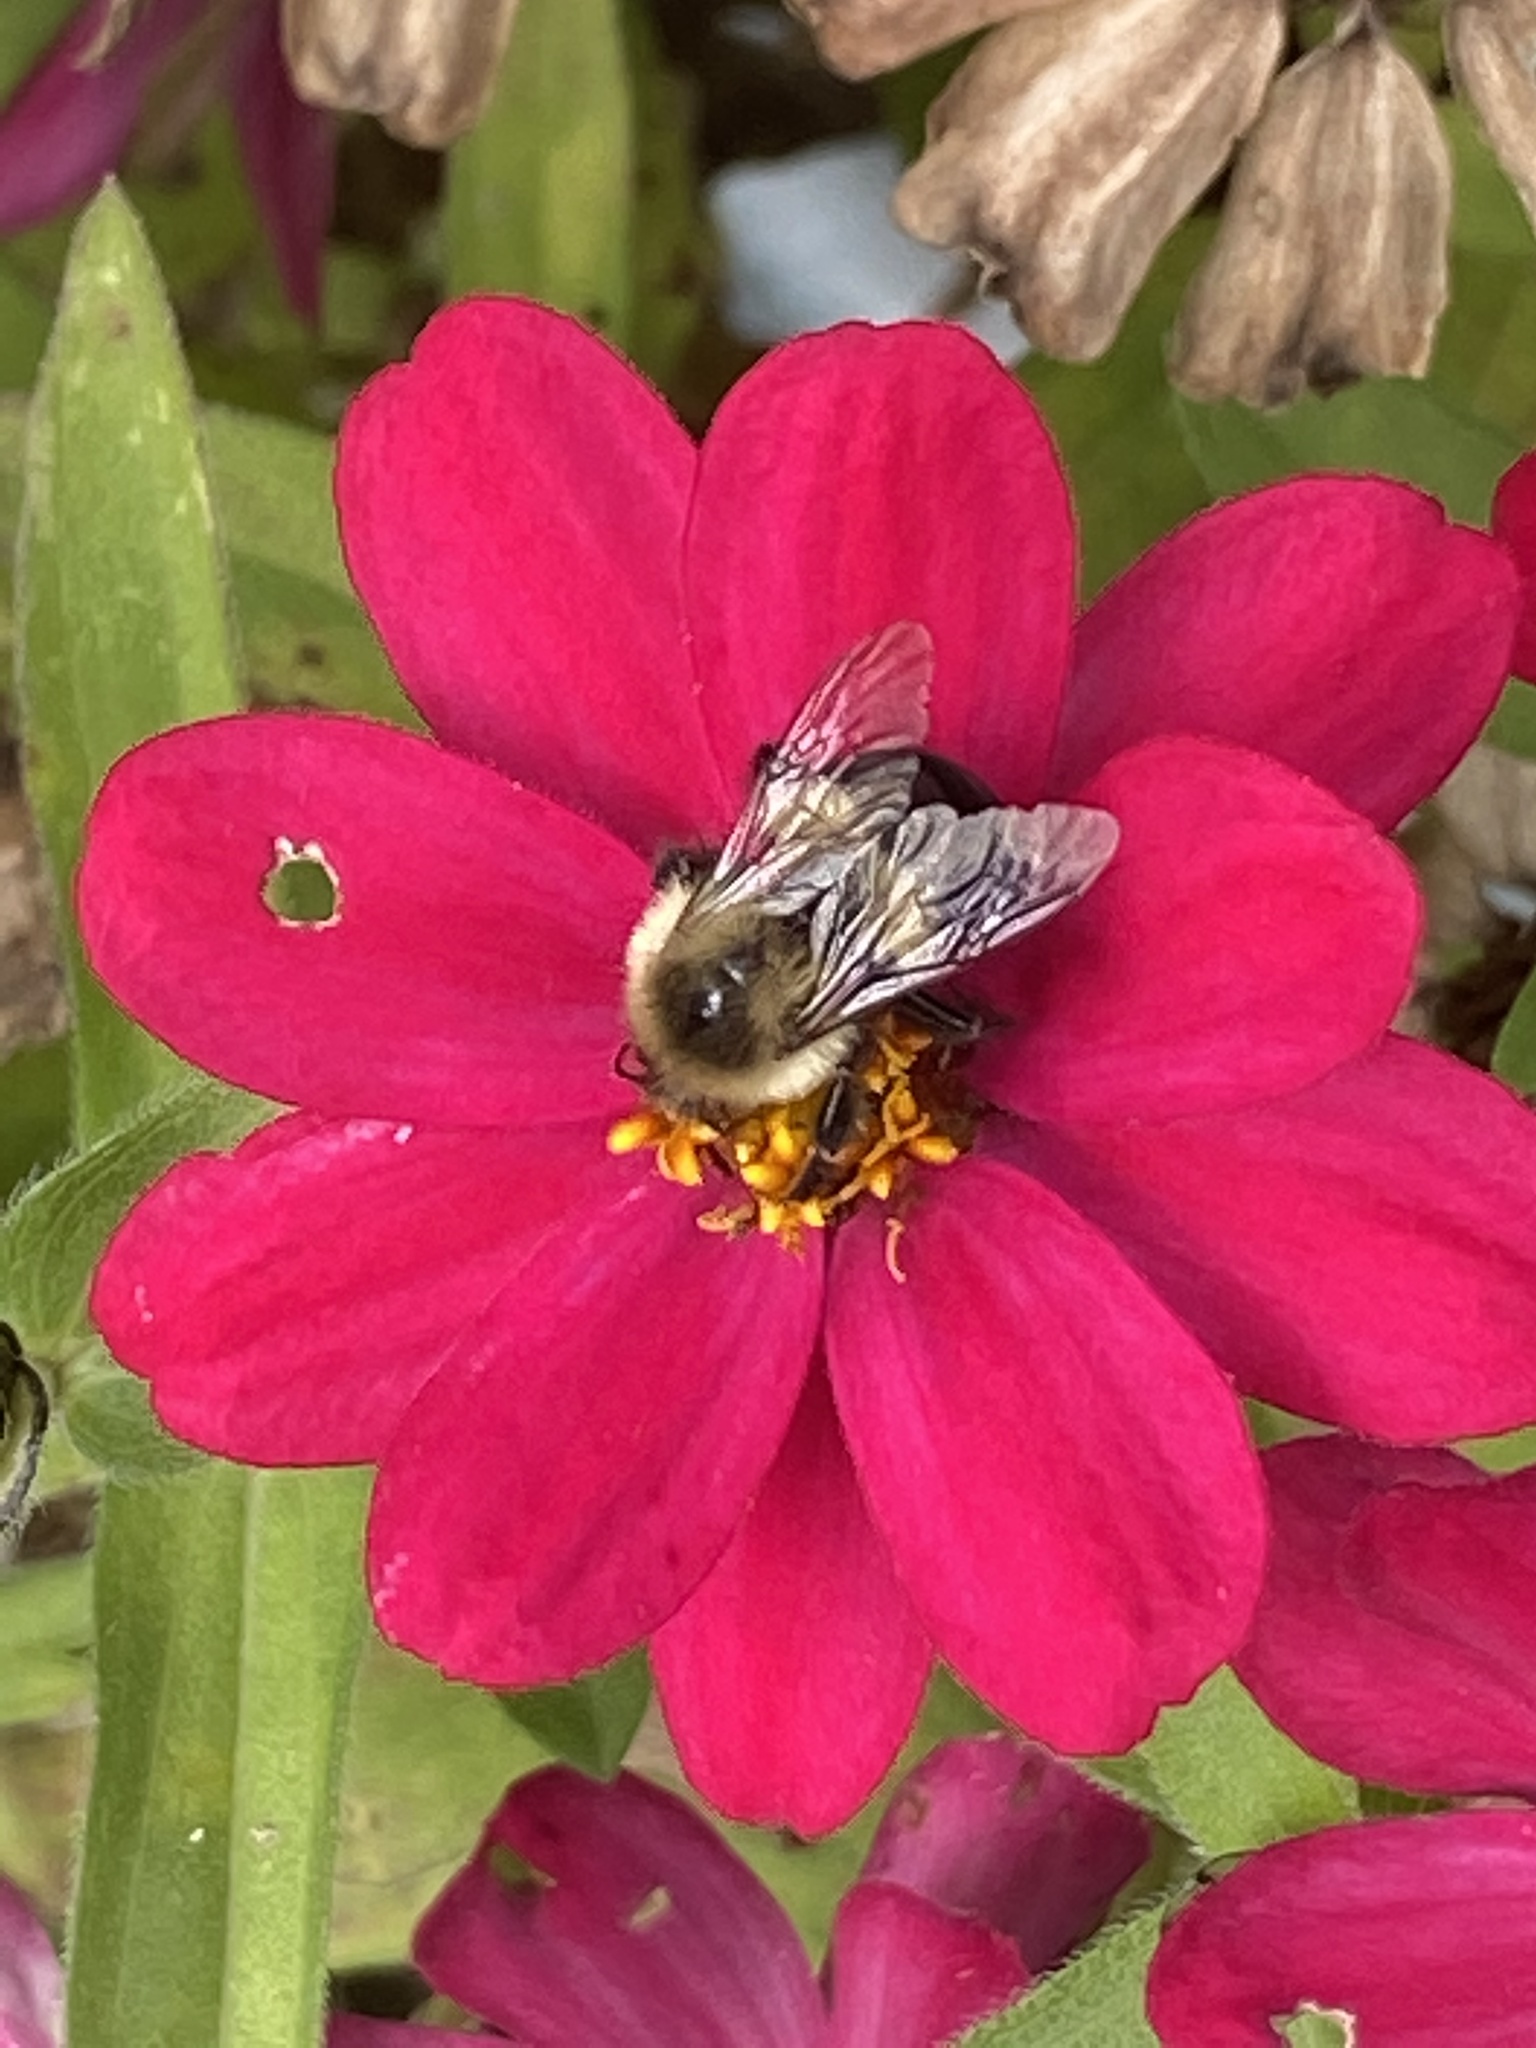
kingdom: Animalia
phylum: Arthropoda
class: Insecta
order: Hymenoptera
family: Apidae
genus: Bombus
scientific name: Bombus impatiens
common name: Common eastern bumble bee
